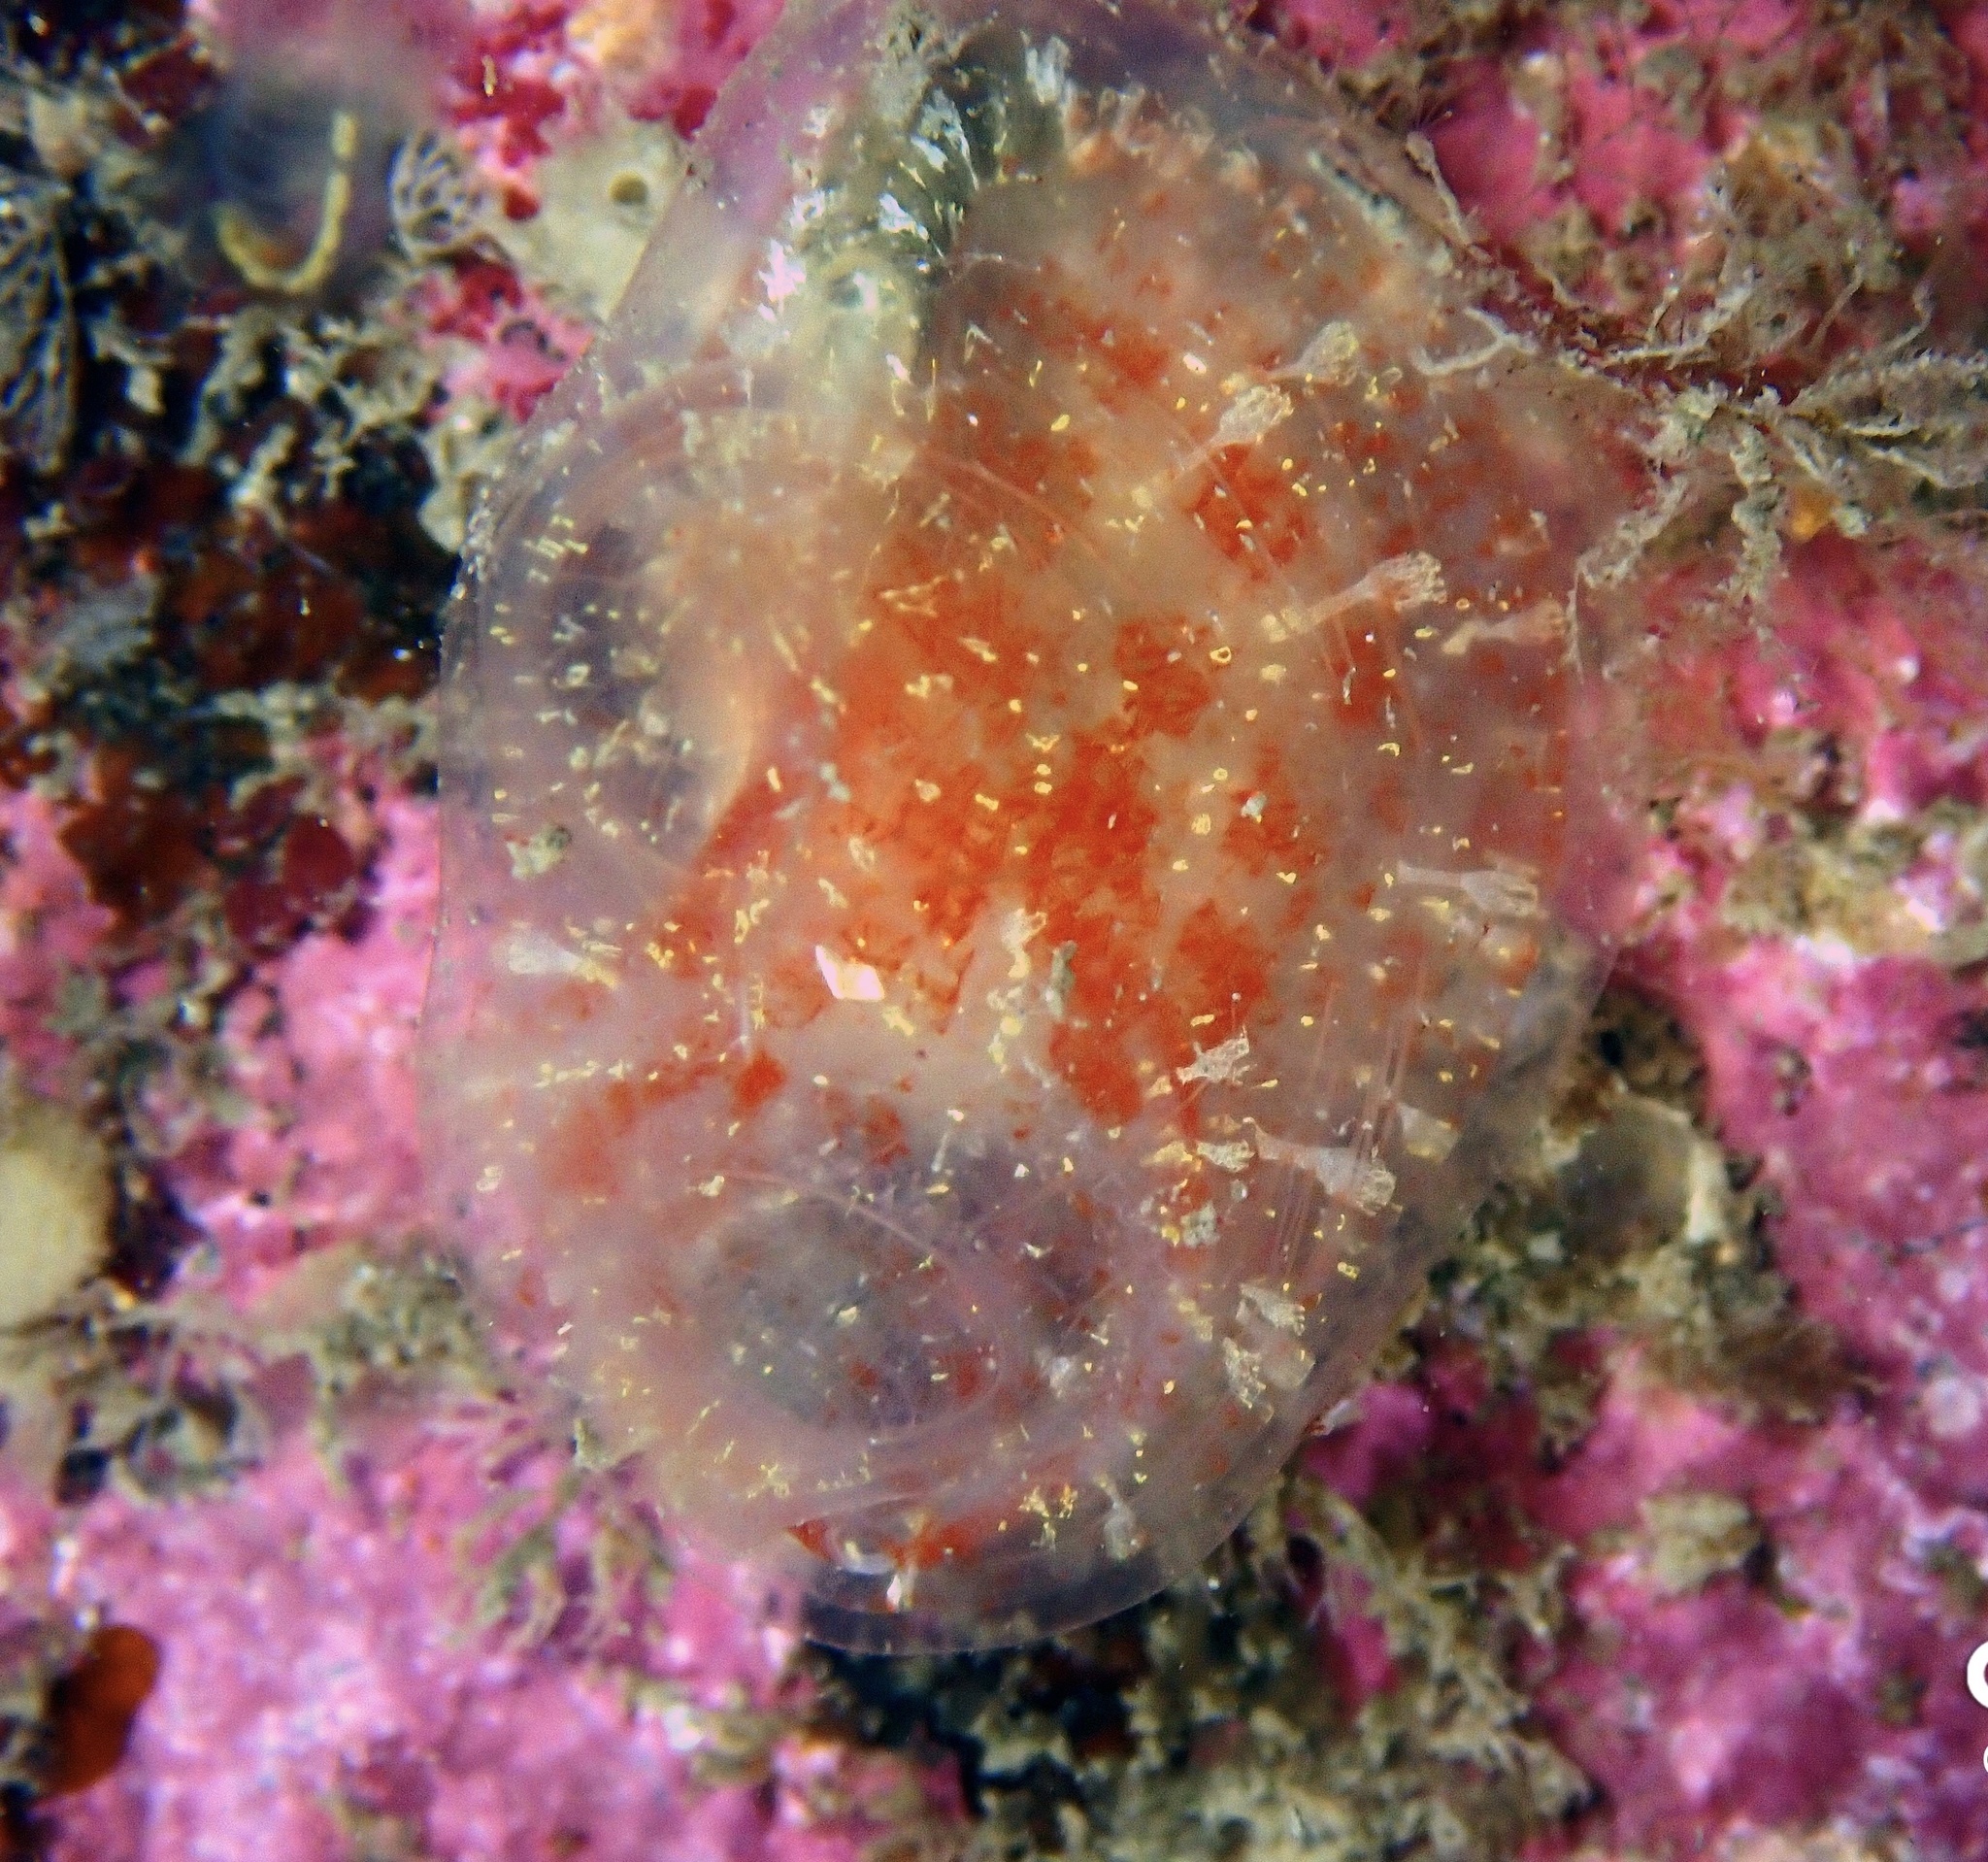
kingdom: Animalia
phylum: Chordata
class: Ascidiacea
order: Phlebobranchia
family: Corellidae
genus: Corella
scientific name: Corella parallelogramma
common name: Gas mantle ascidian
